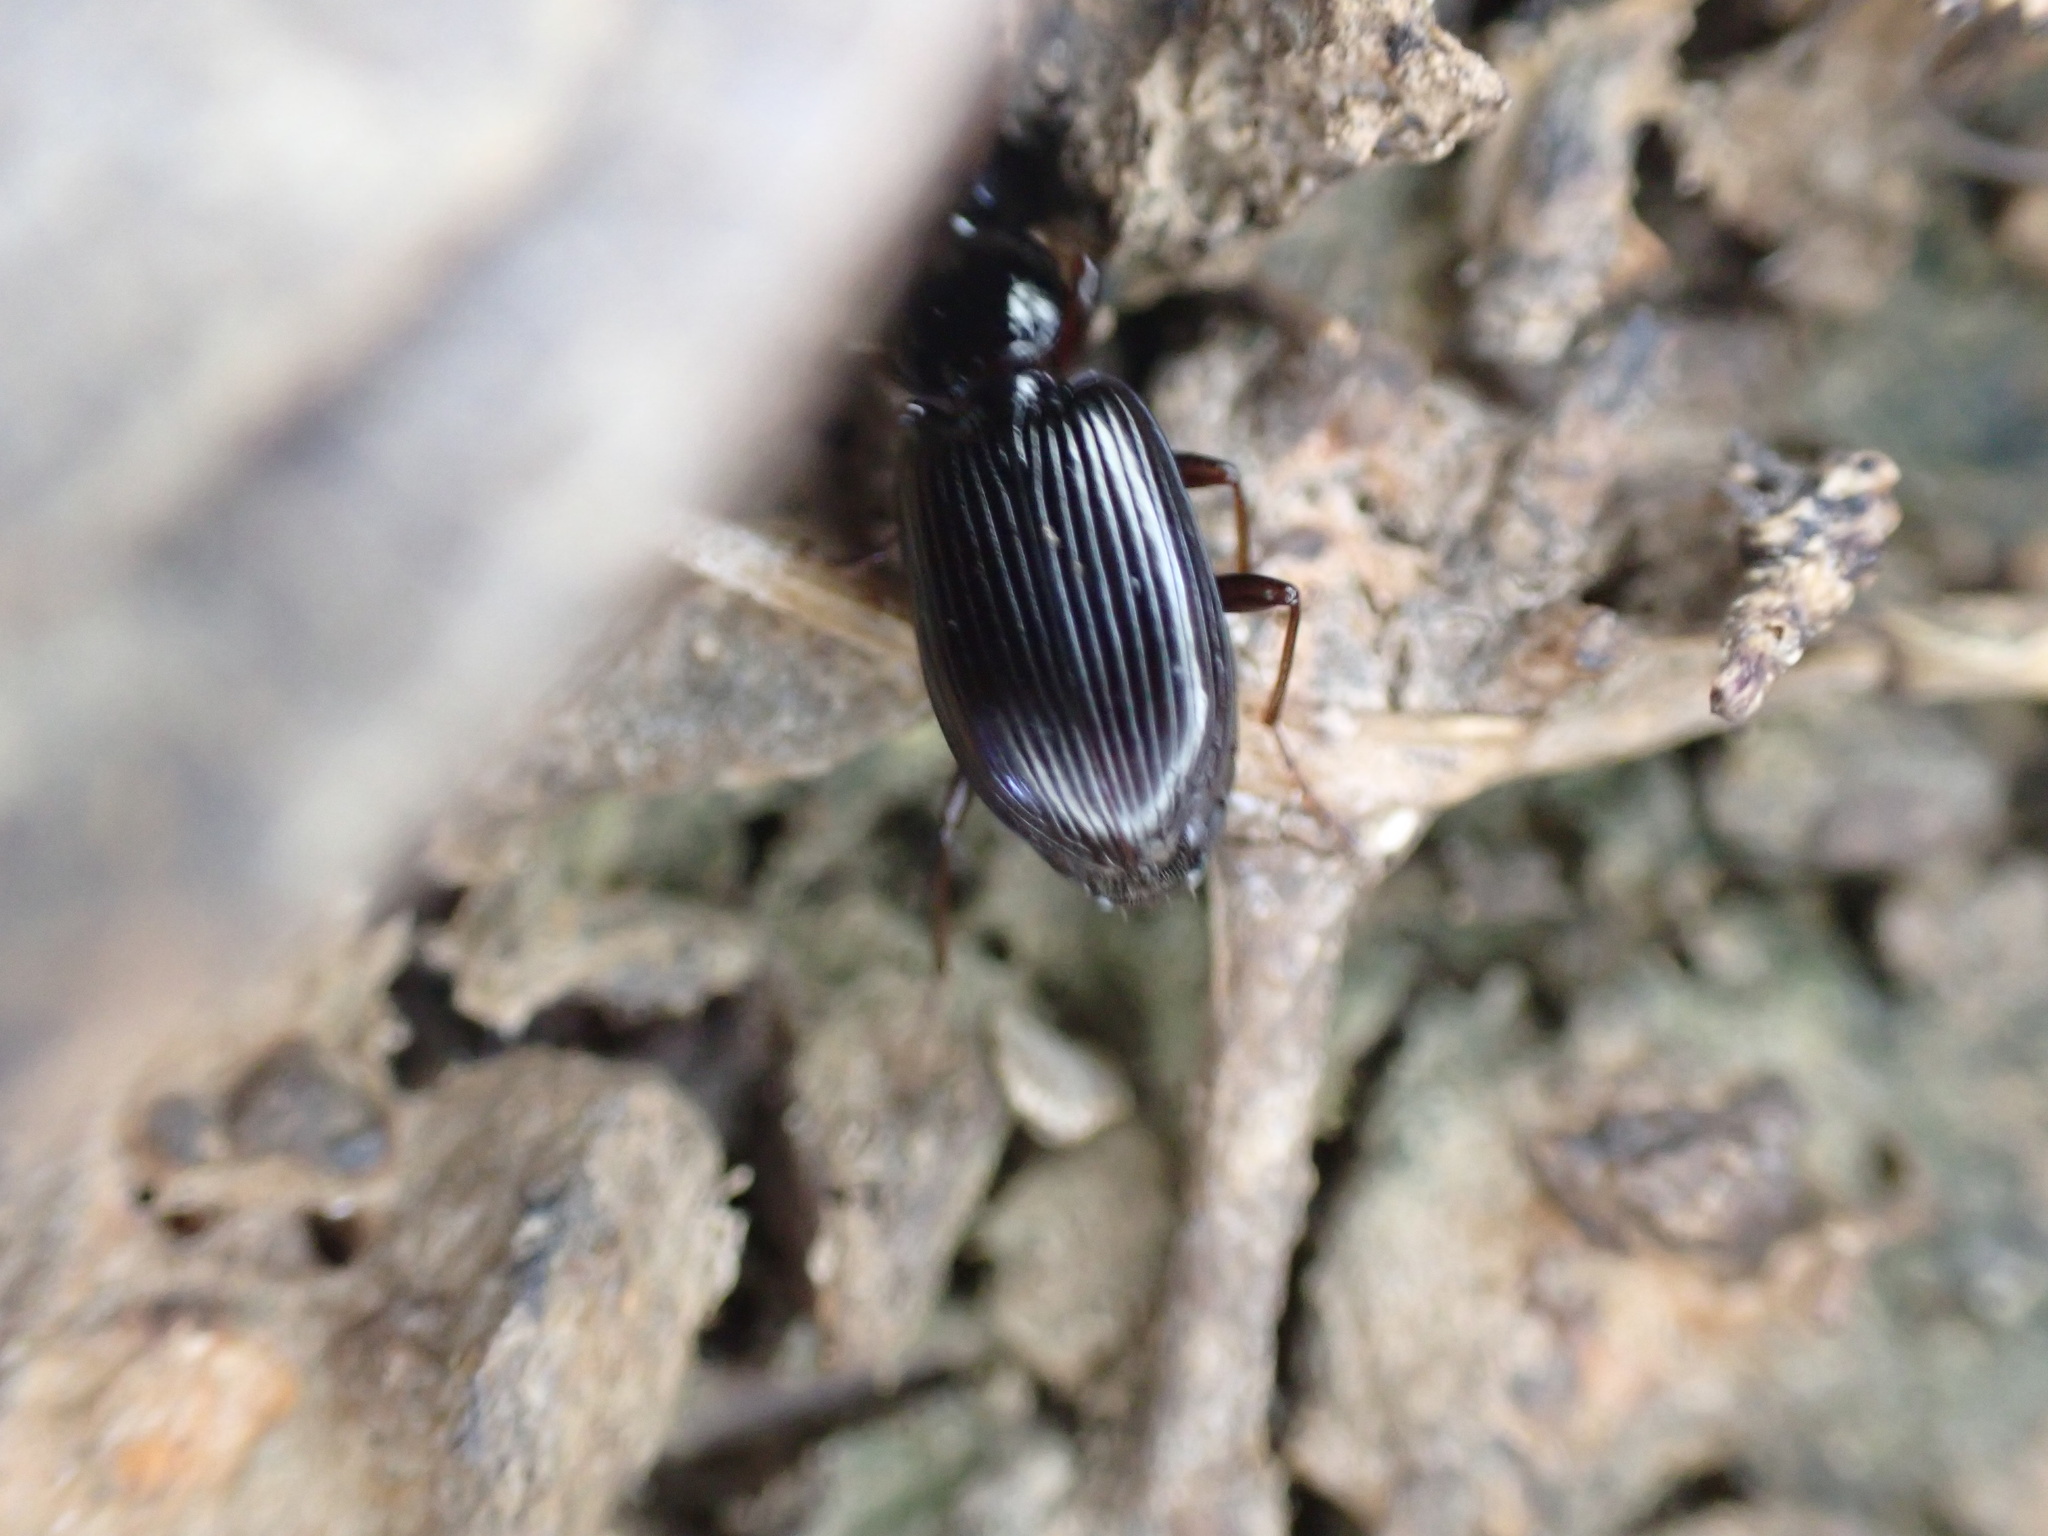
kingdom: Animalia
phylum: Arthropoda
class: Insecta
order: Coleoptera
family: Carabidae
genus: Agonum
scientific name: Agonum punctiforme
